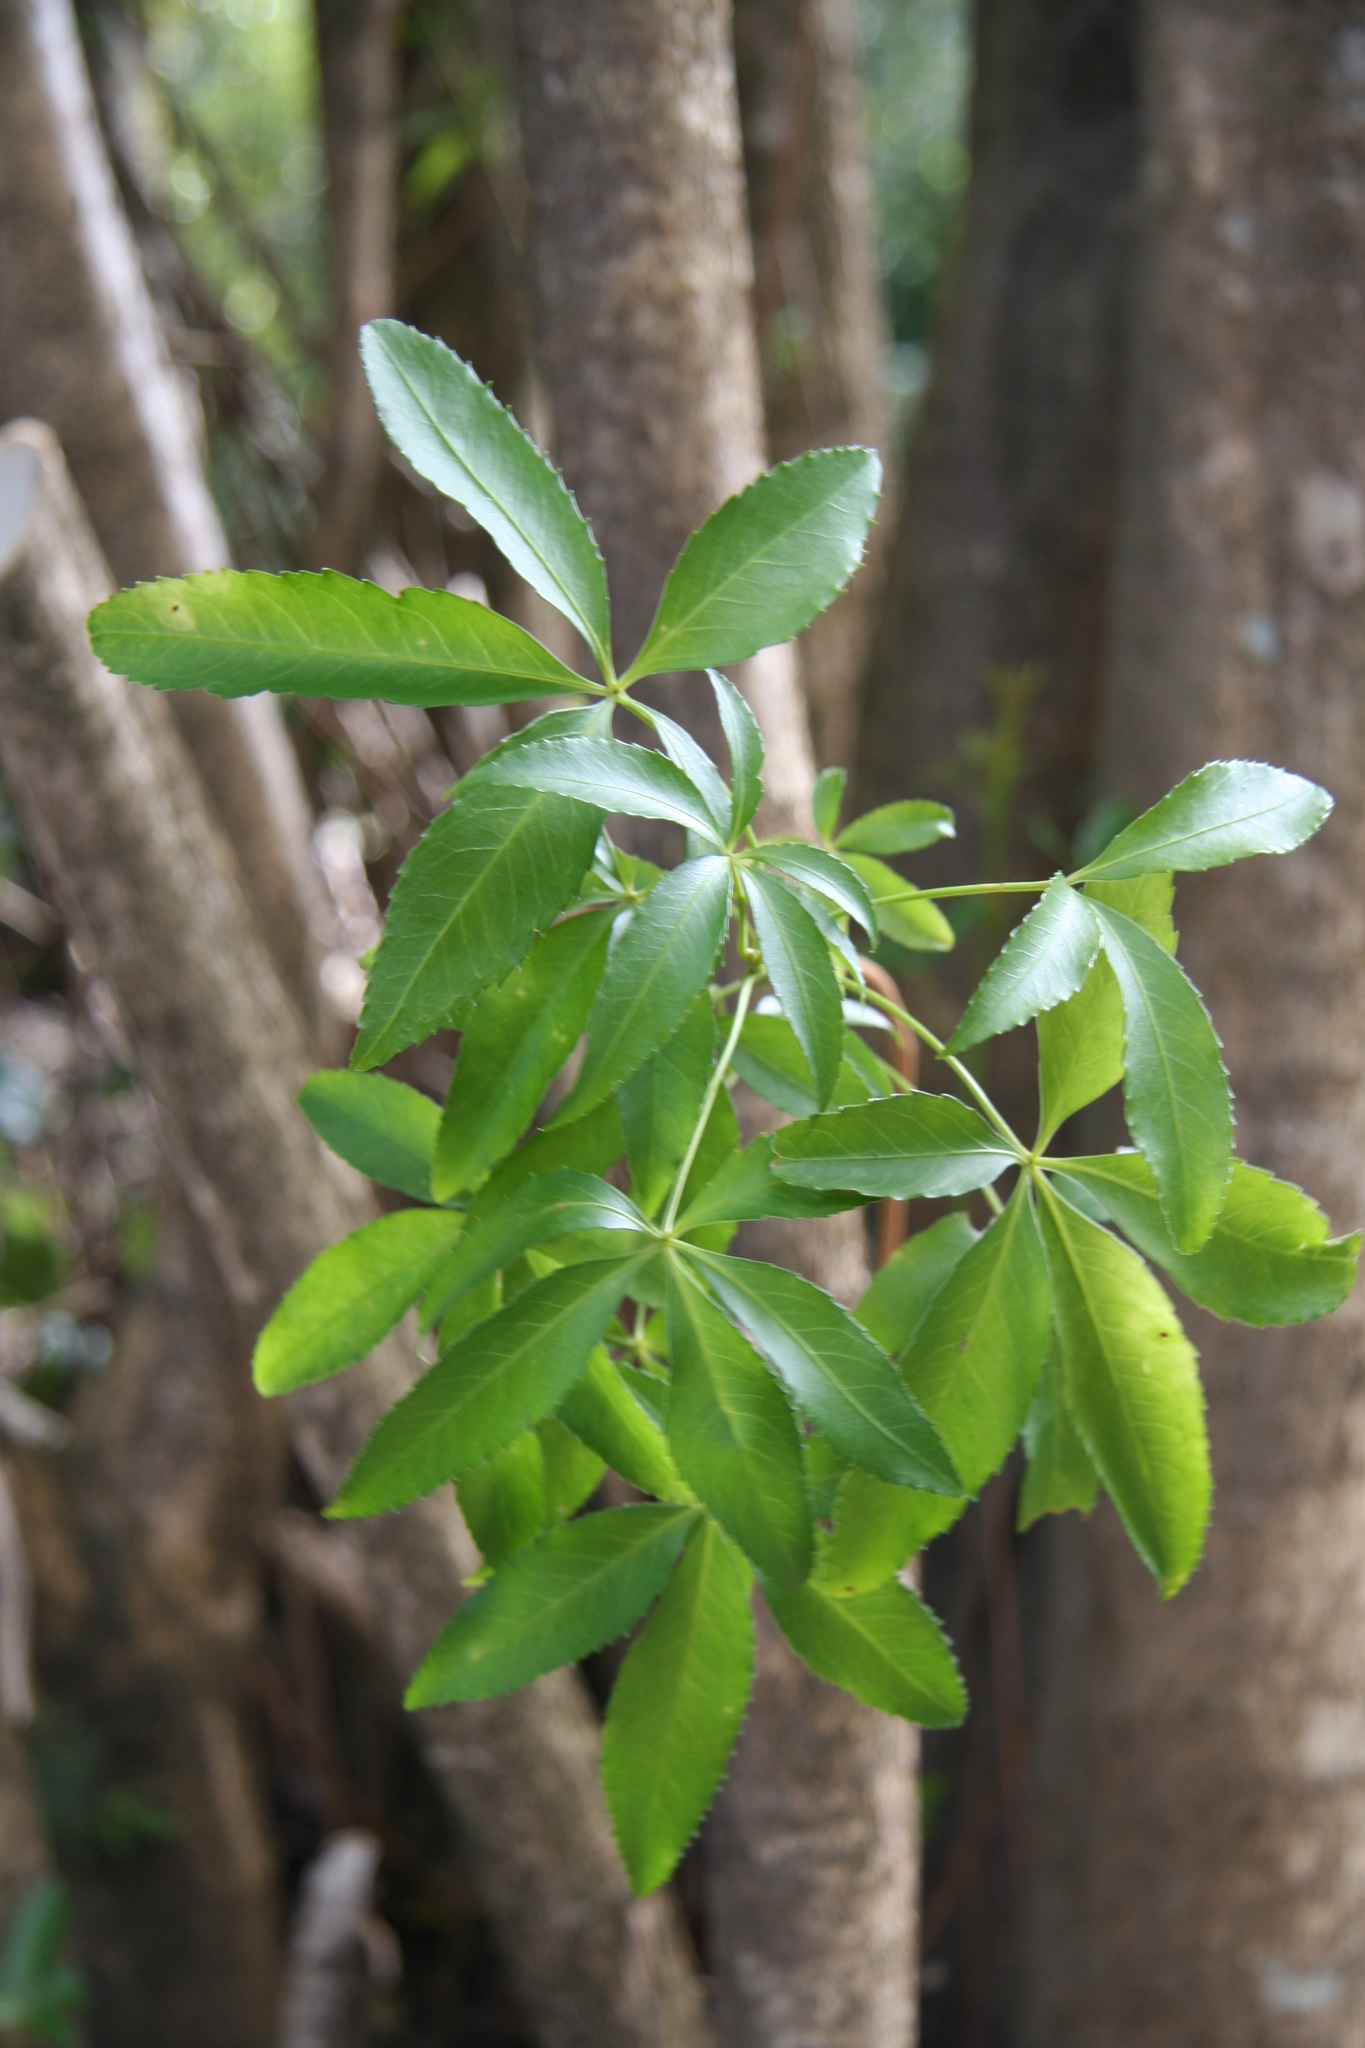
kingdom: Plantae
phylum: Tracheophyta
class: Magnoliopsida
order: Apiales
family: Araliaceae
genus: Raukaua
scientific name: Raukaua laetevirens
